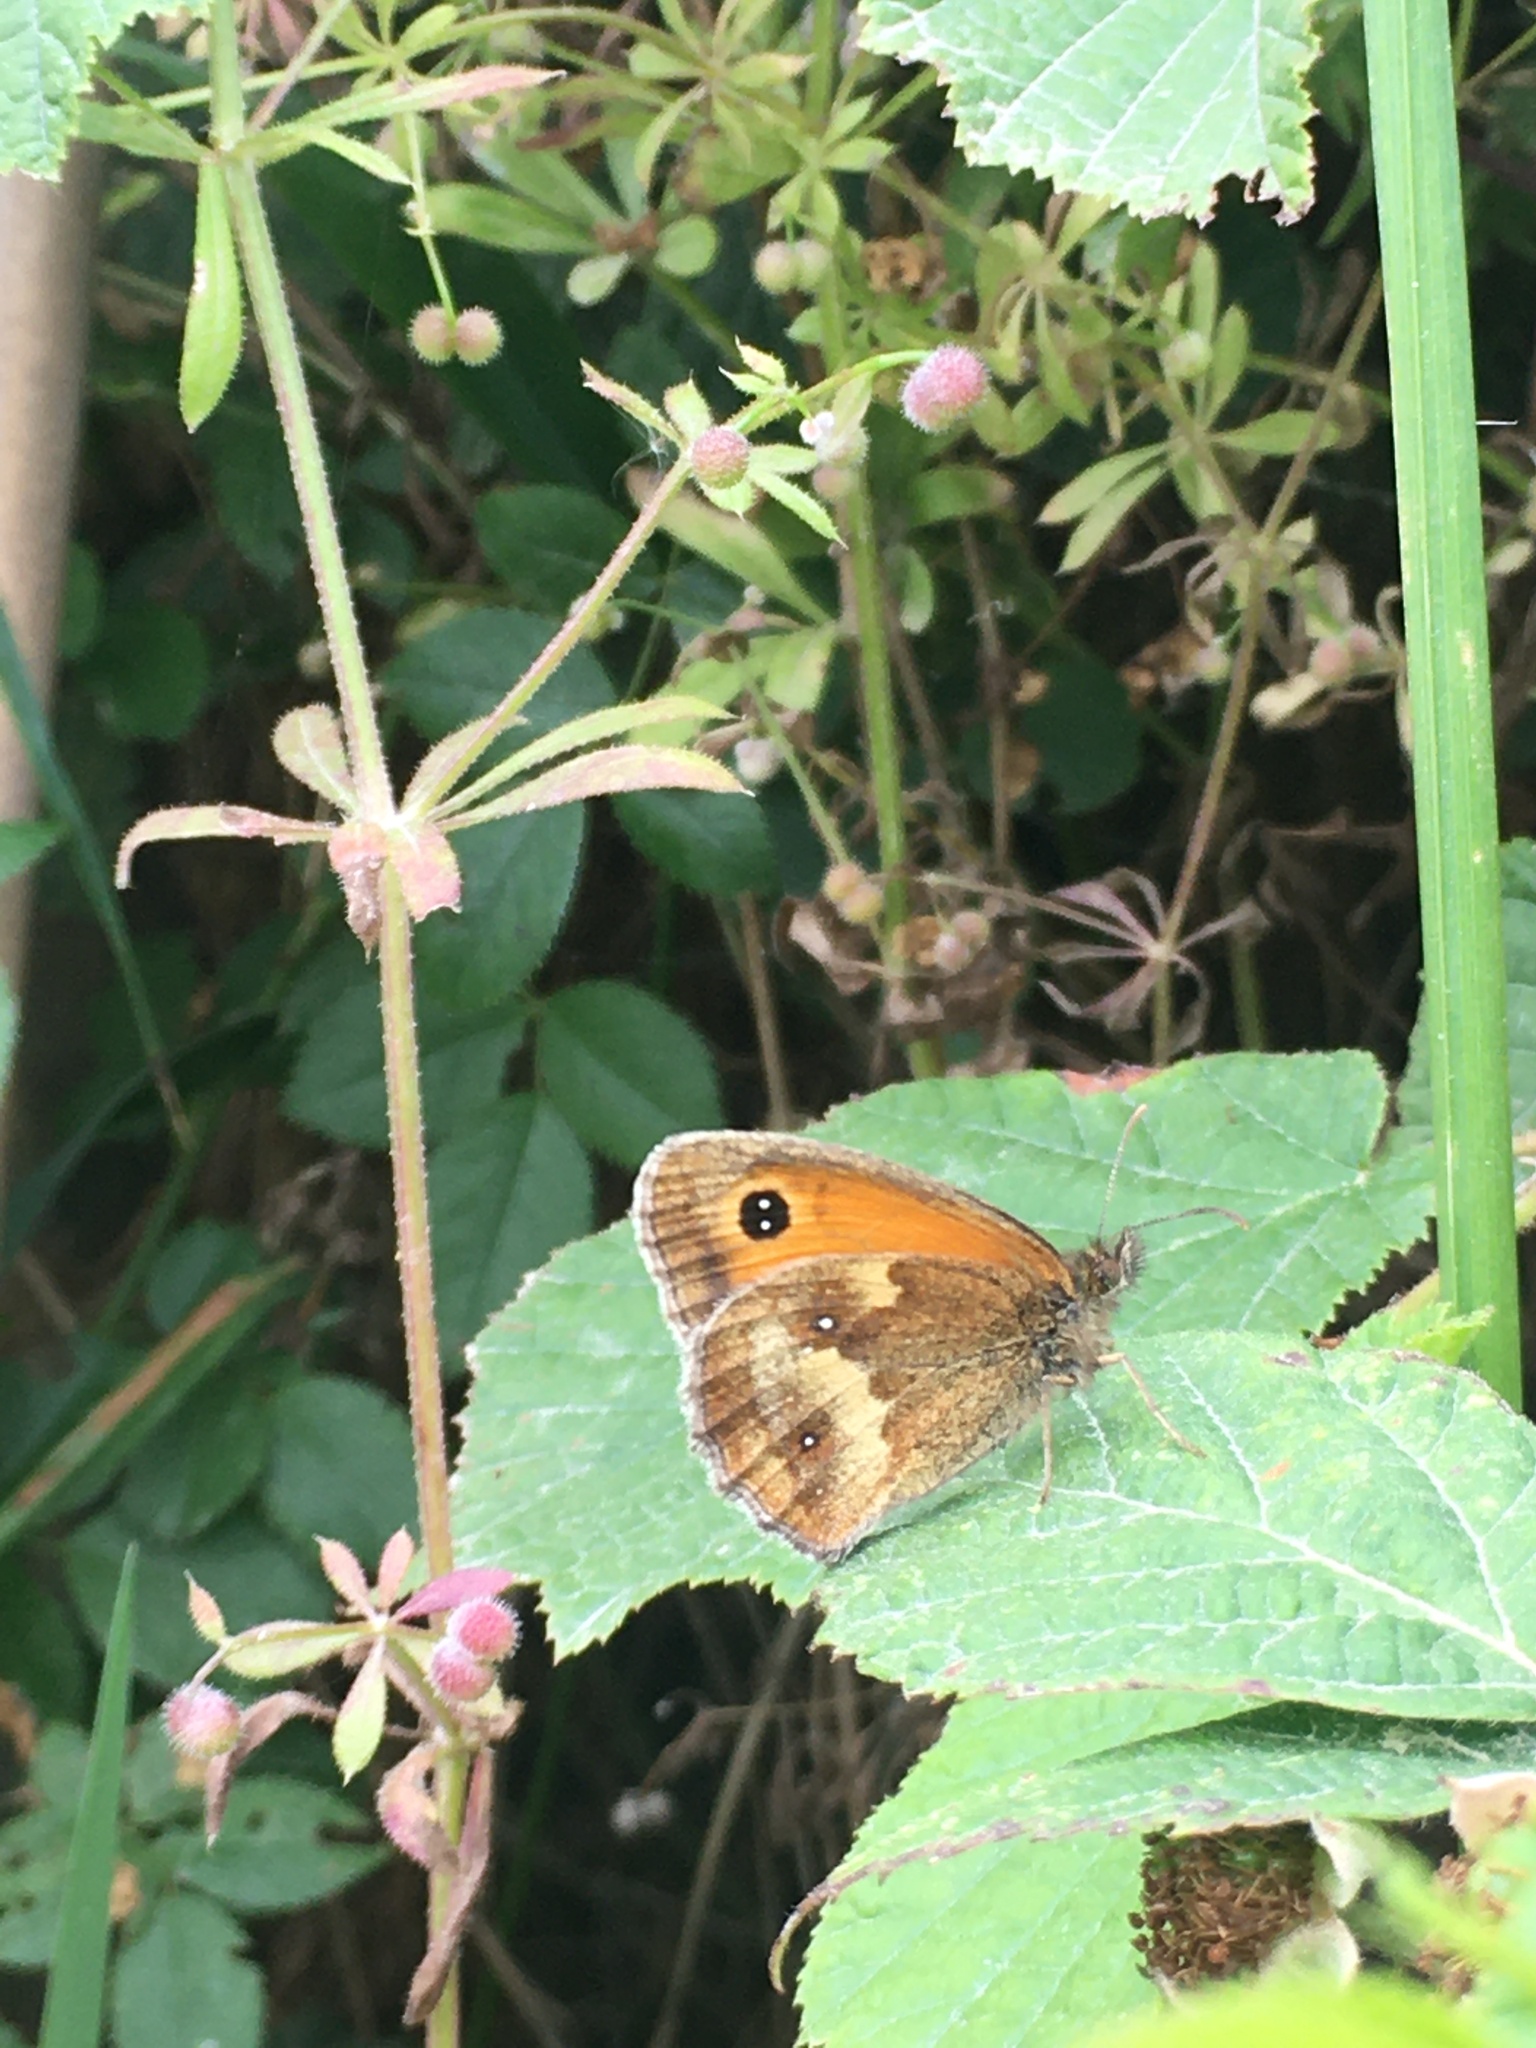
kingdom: Animalia
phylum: Arthropoda
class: Insecta
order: Lepidoptera
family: Nymphalidae
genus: Pyronia
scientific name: Pyronia tithonus
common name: Gatekeeper
